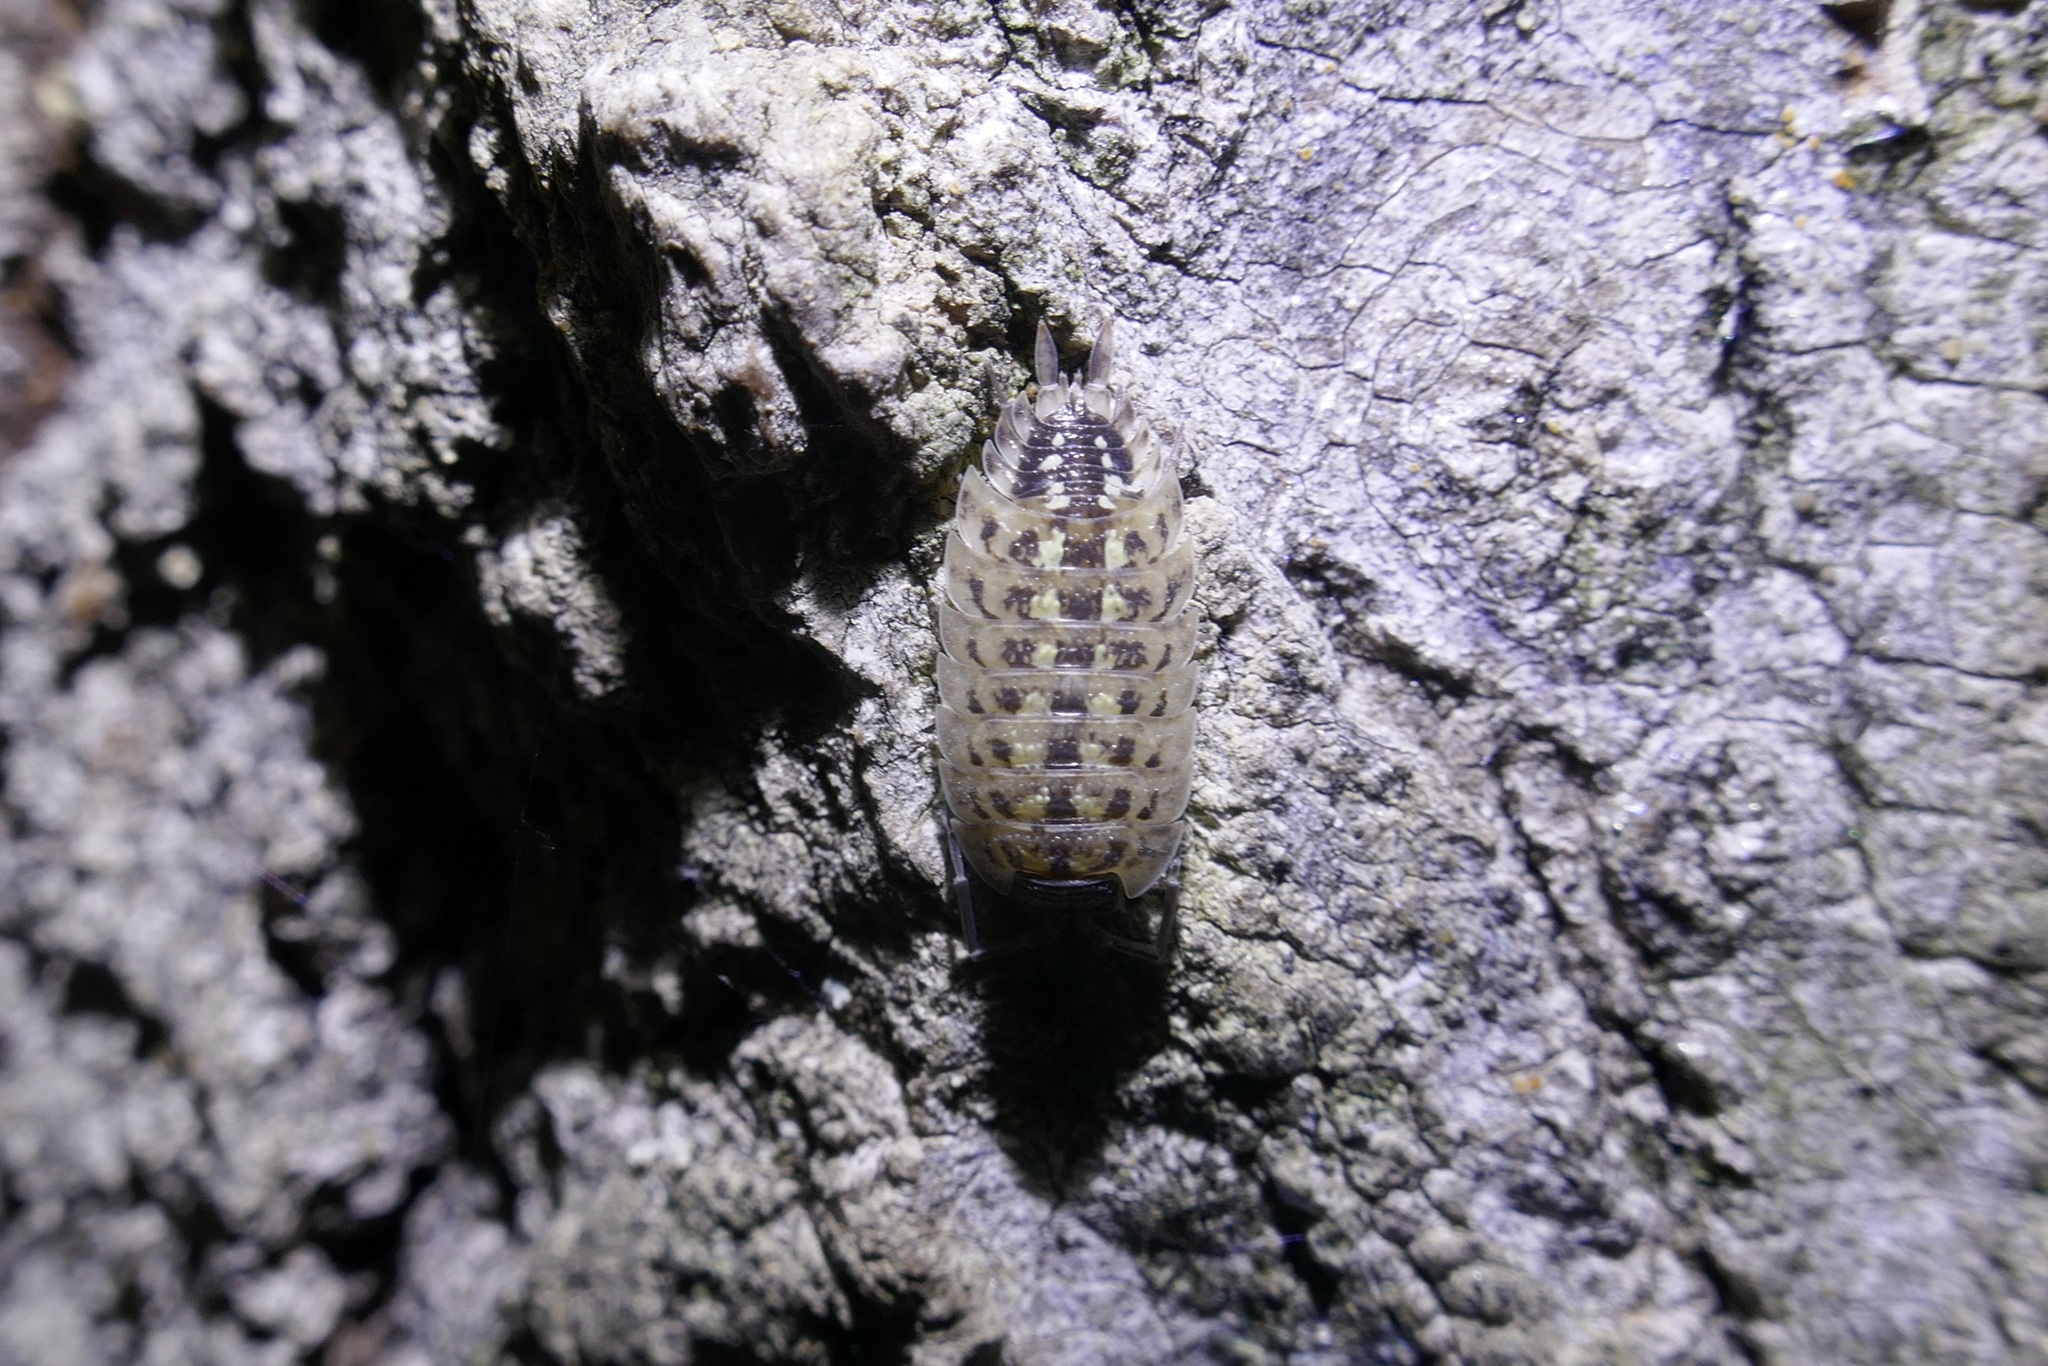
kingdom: Animalia
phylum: Arthropoda
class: Malacostraca
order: Isopoda
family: Porcellionidae
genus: Porcellio
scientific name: Porcellio spinicornis
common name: Painted woodlouse
